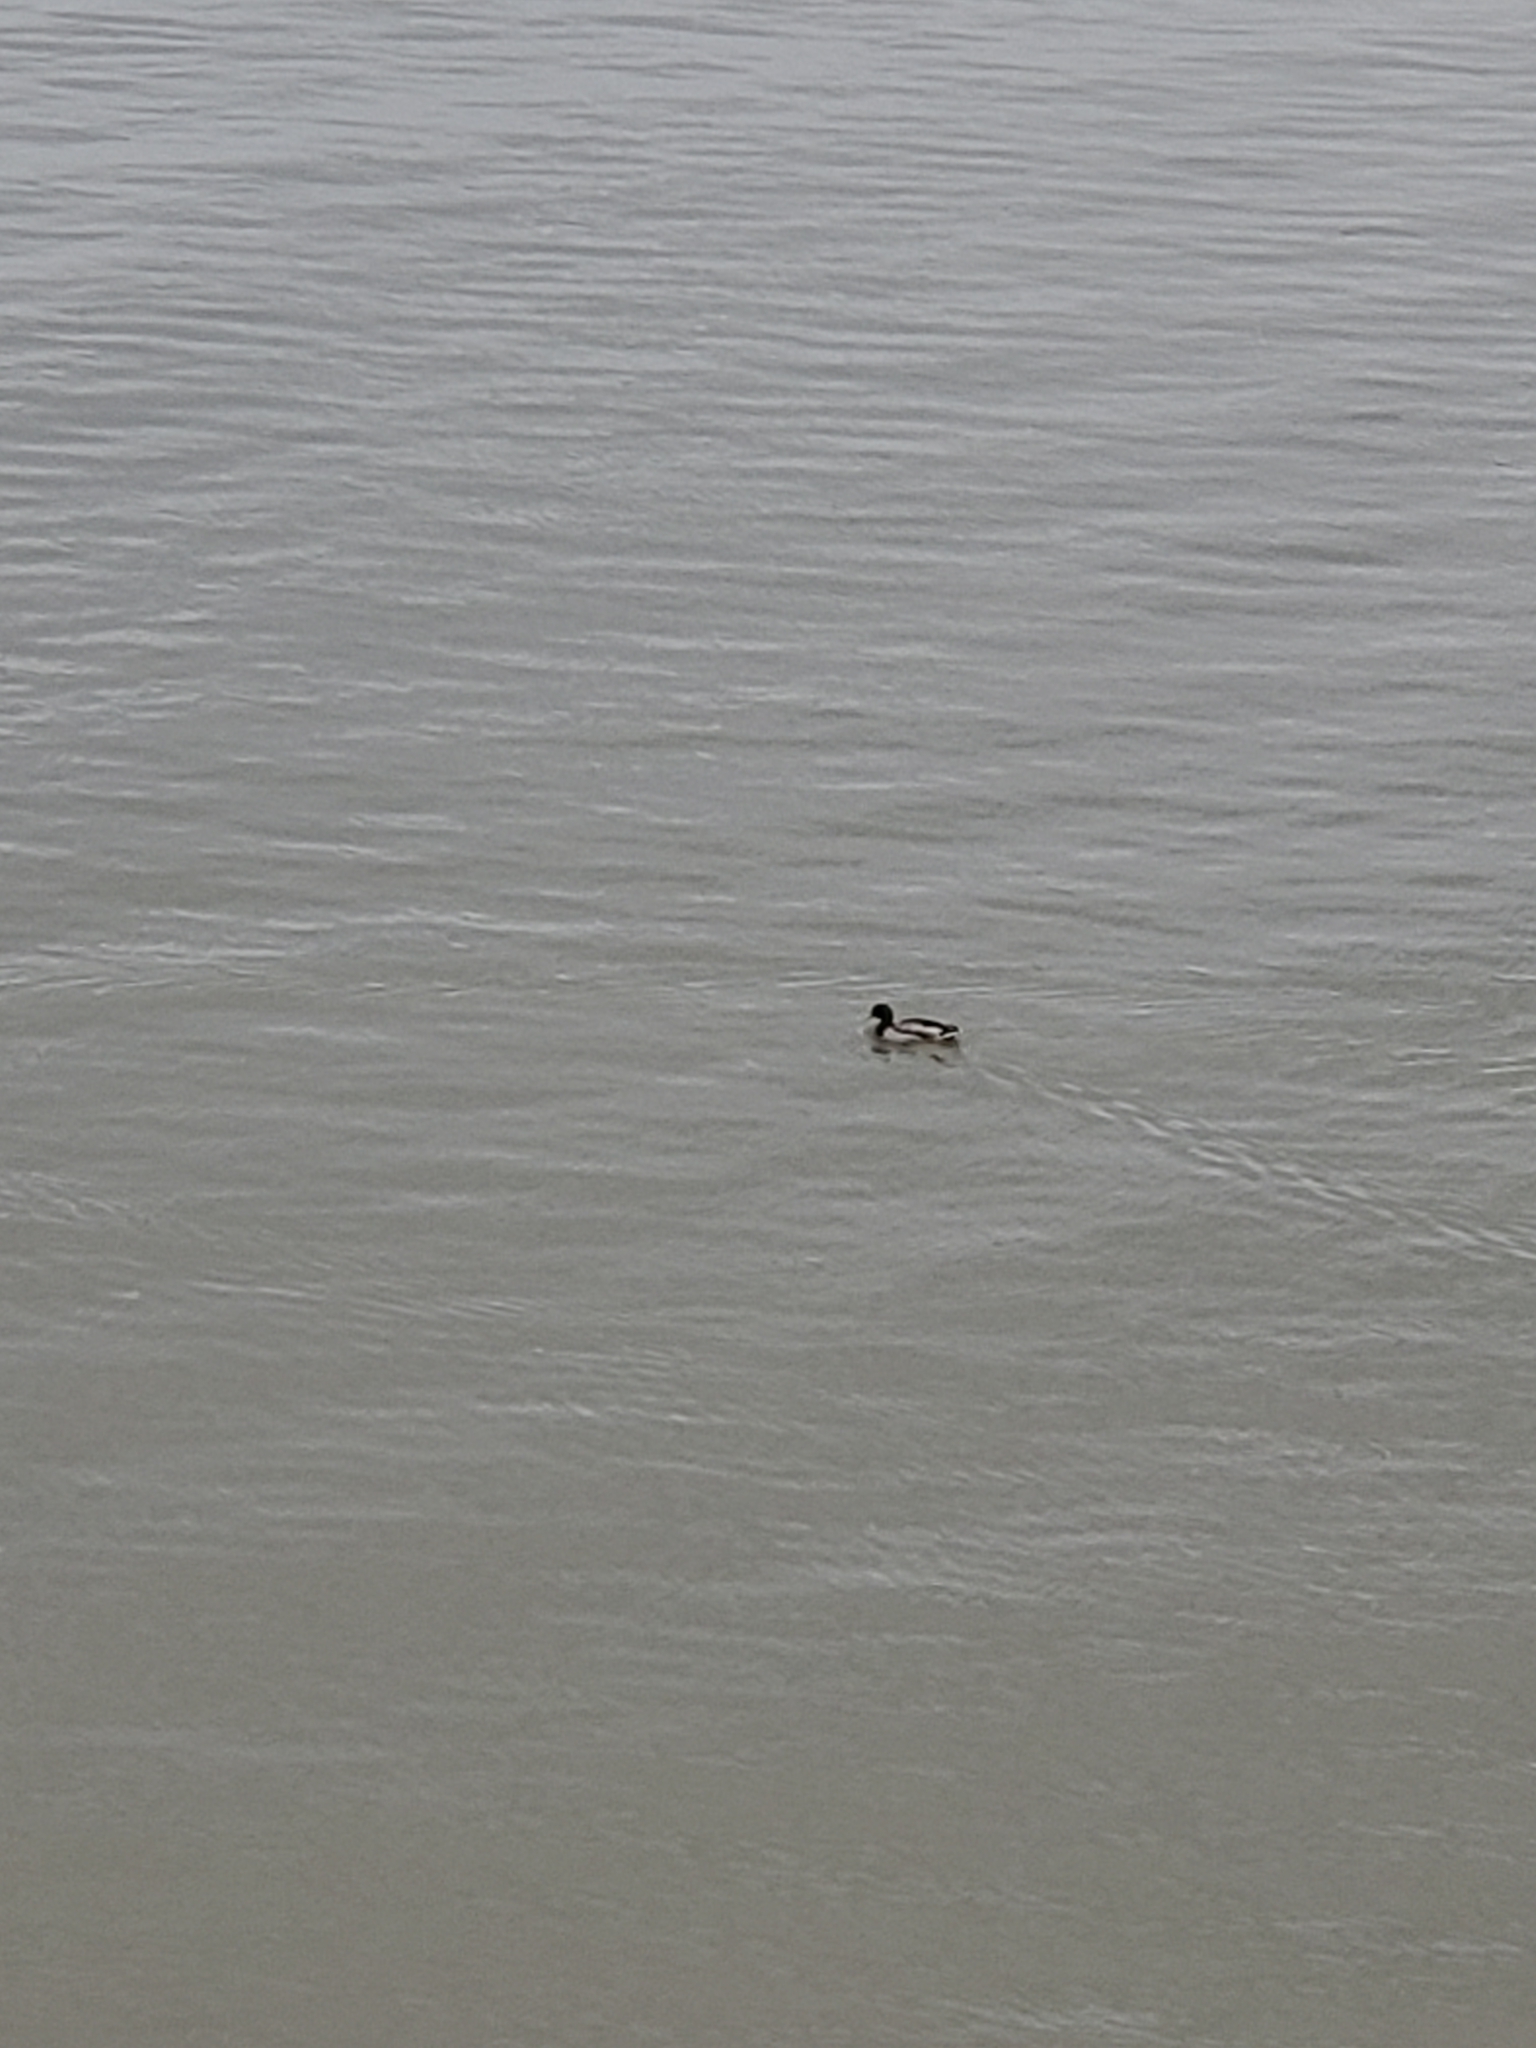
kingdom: Animalia
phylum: Chordata
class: Aves
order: Anseriformes
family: Anatidae
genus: Anas
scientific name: Anas platyrhynchos
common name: Mallard
